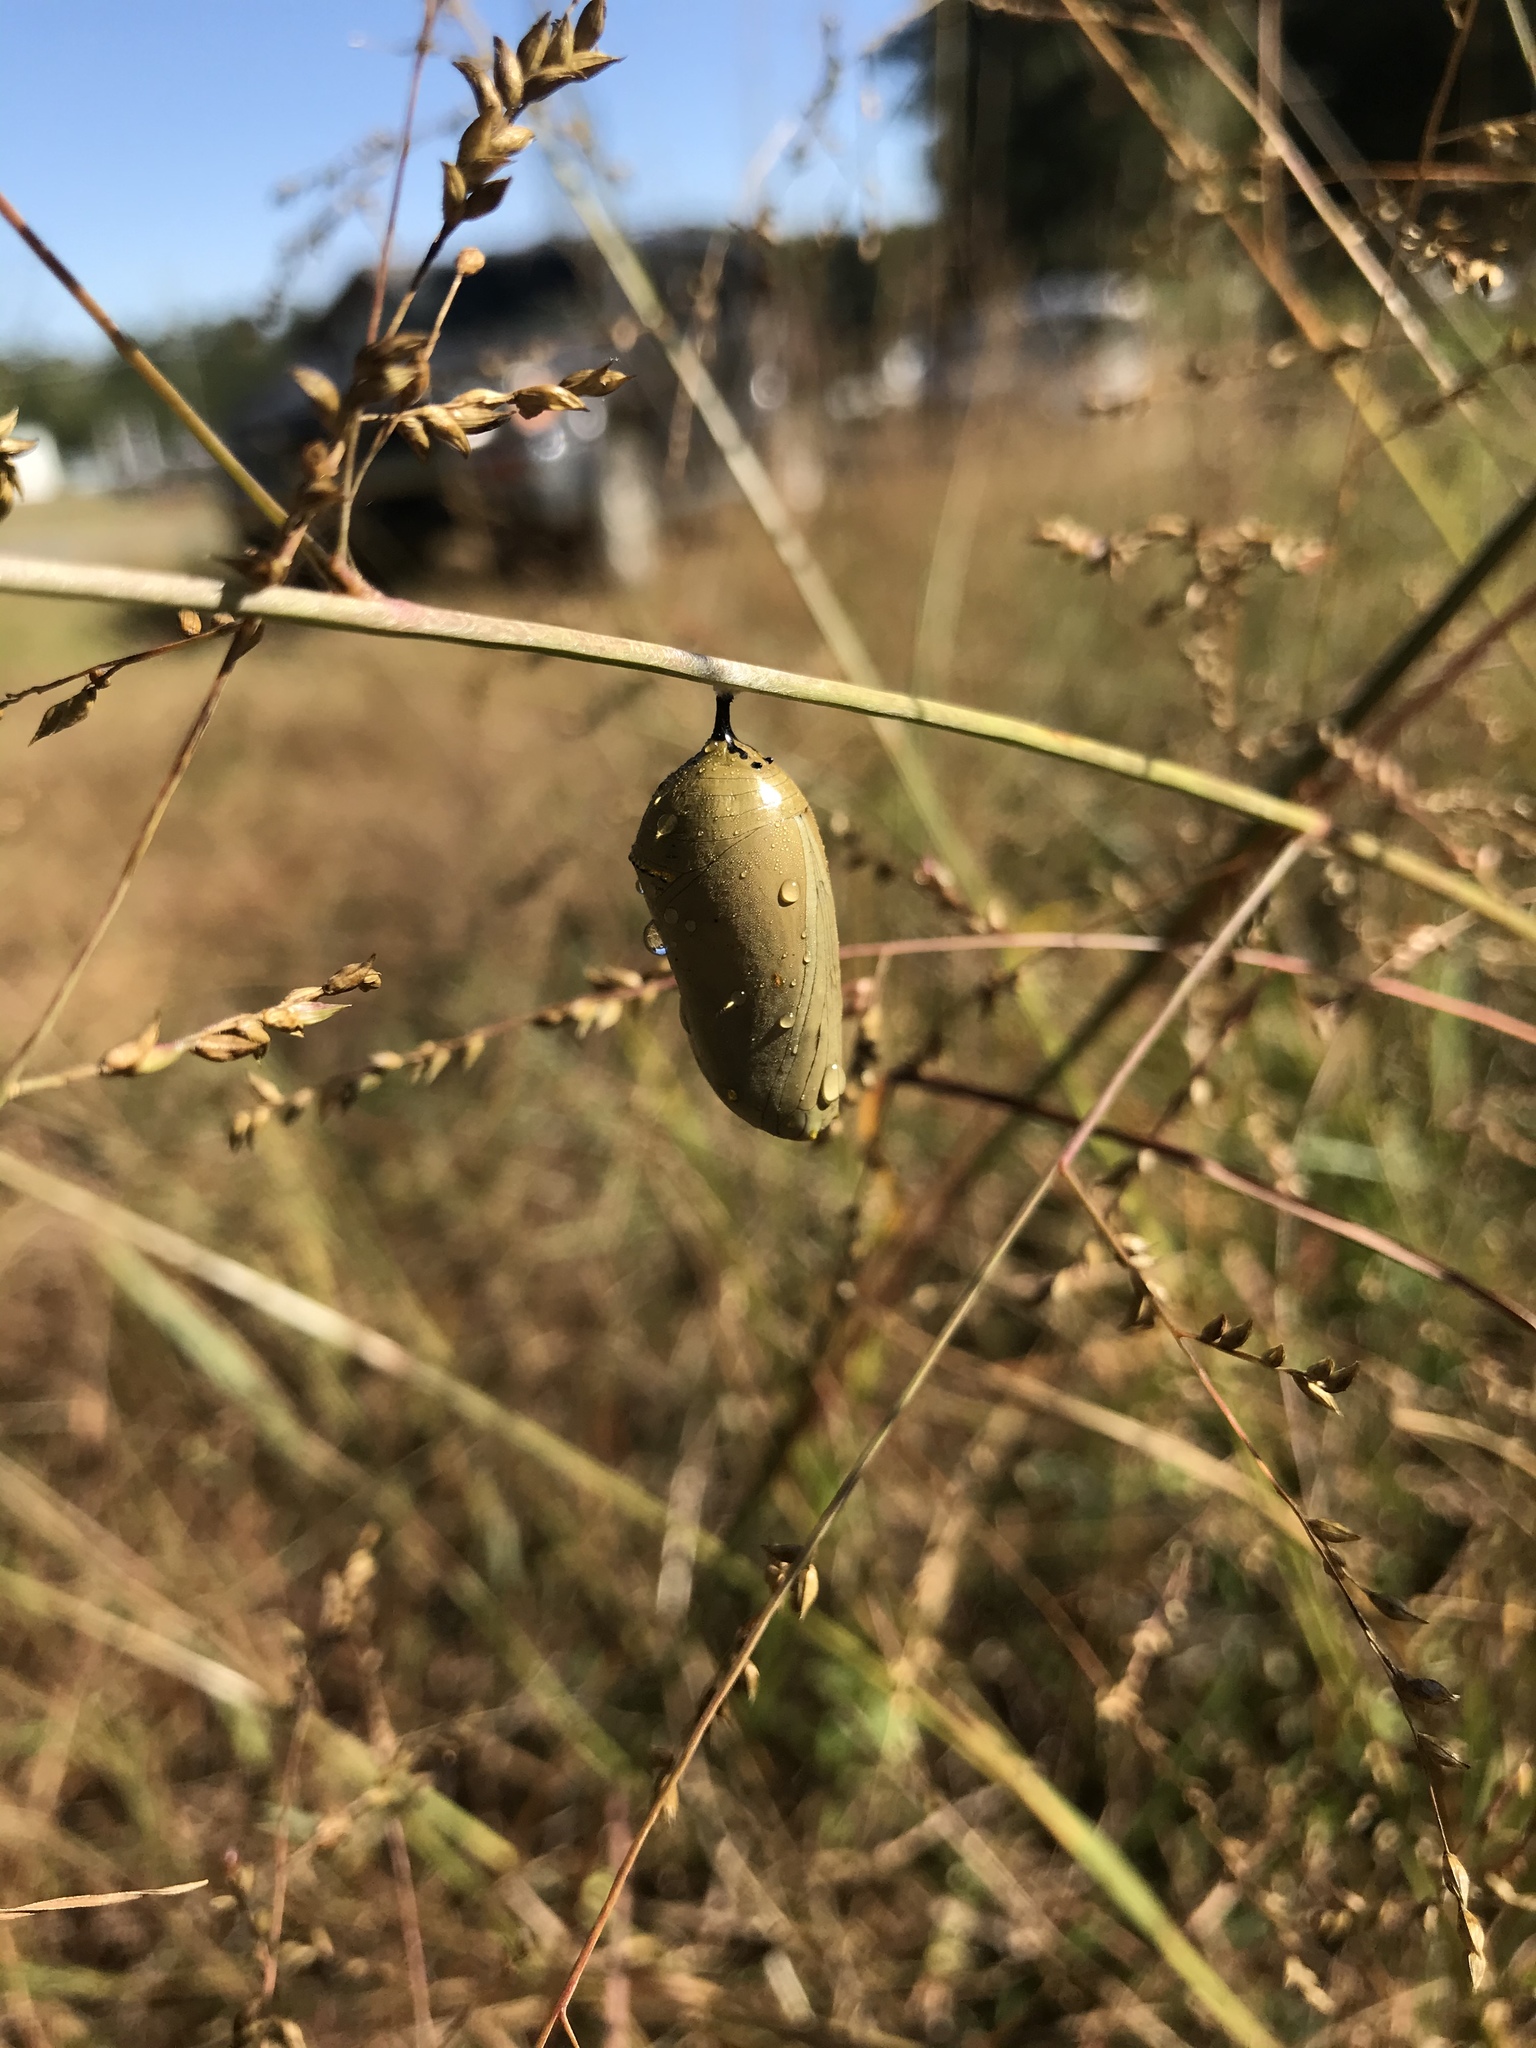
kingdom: Animalia
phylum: Arthropoda
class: Insecta
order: Lepidoptera
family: Nymphalidae
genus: Danaus
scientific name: Danaus plexippus
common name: Monarch
